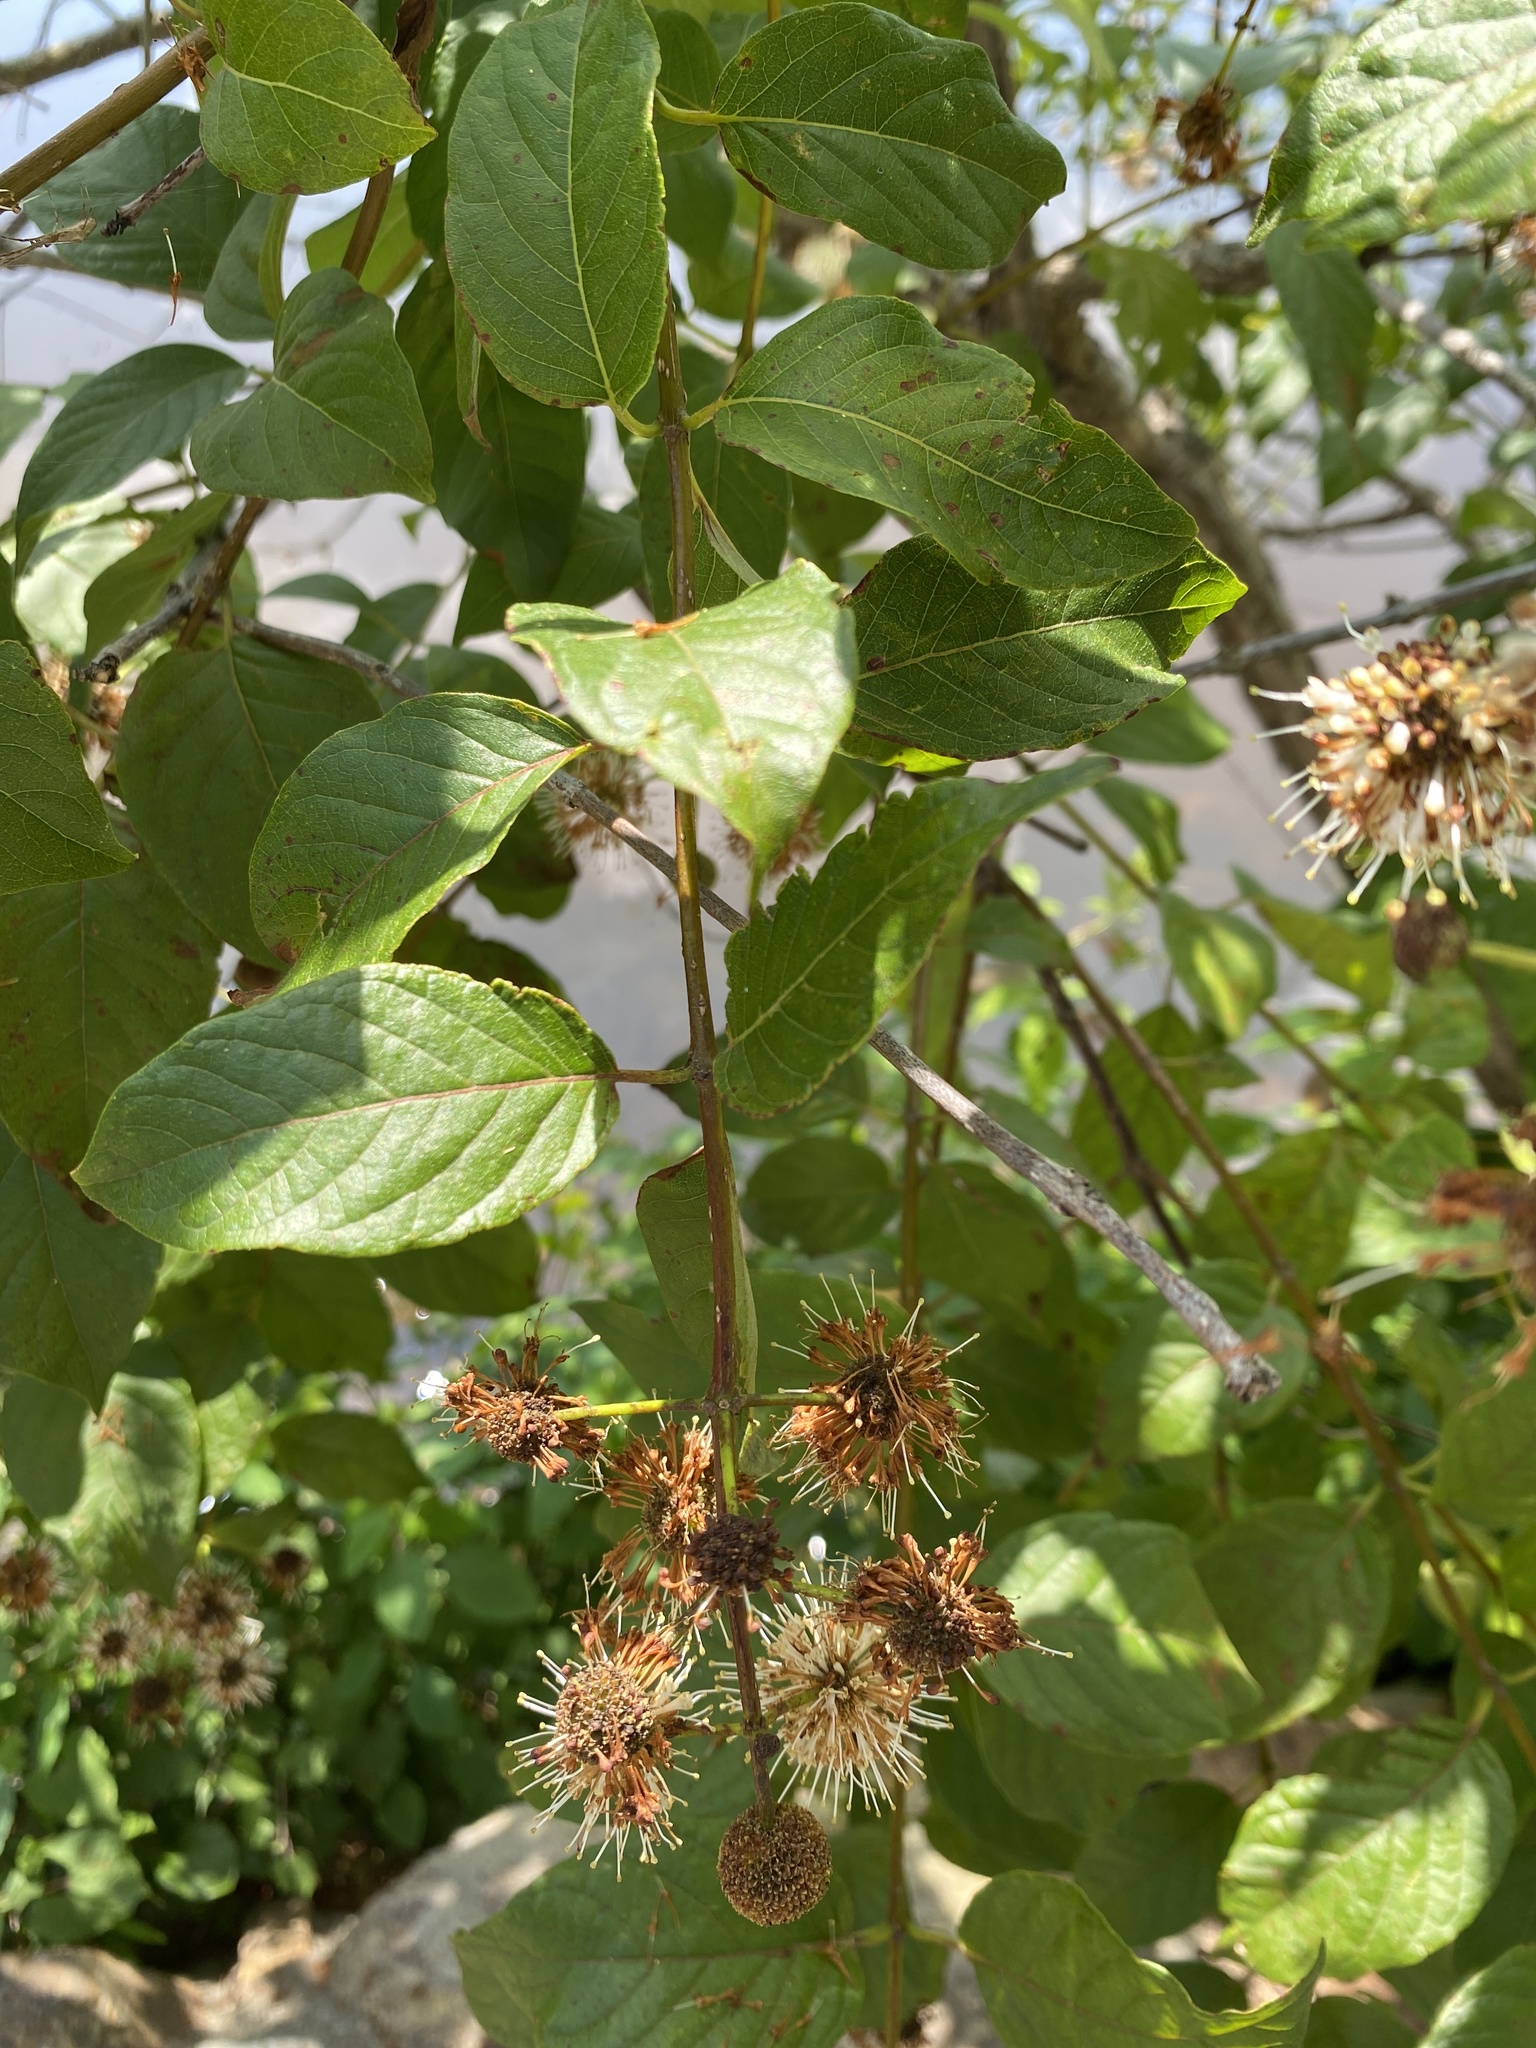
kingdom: Plantae
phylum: Tracheophyta
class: Magnoliopsida
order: Gentianales
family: Rubiaceae
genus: Cephalanthus
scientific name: Cephalanthus occidentalis
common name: Button-willow
